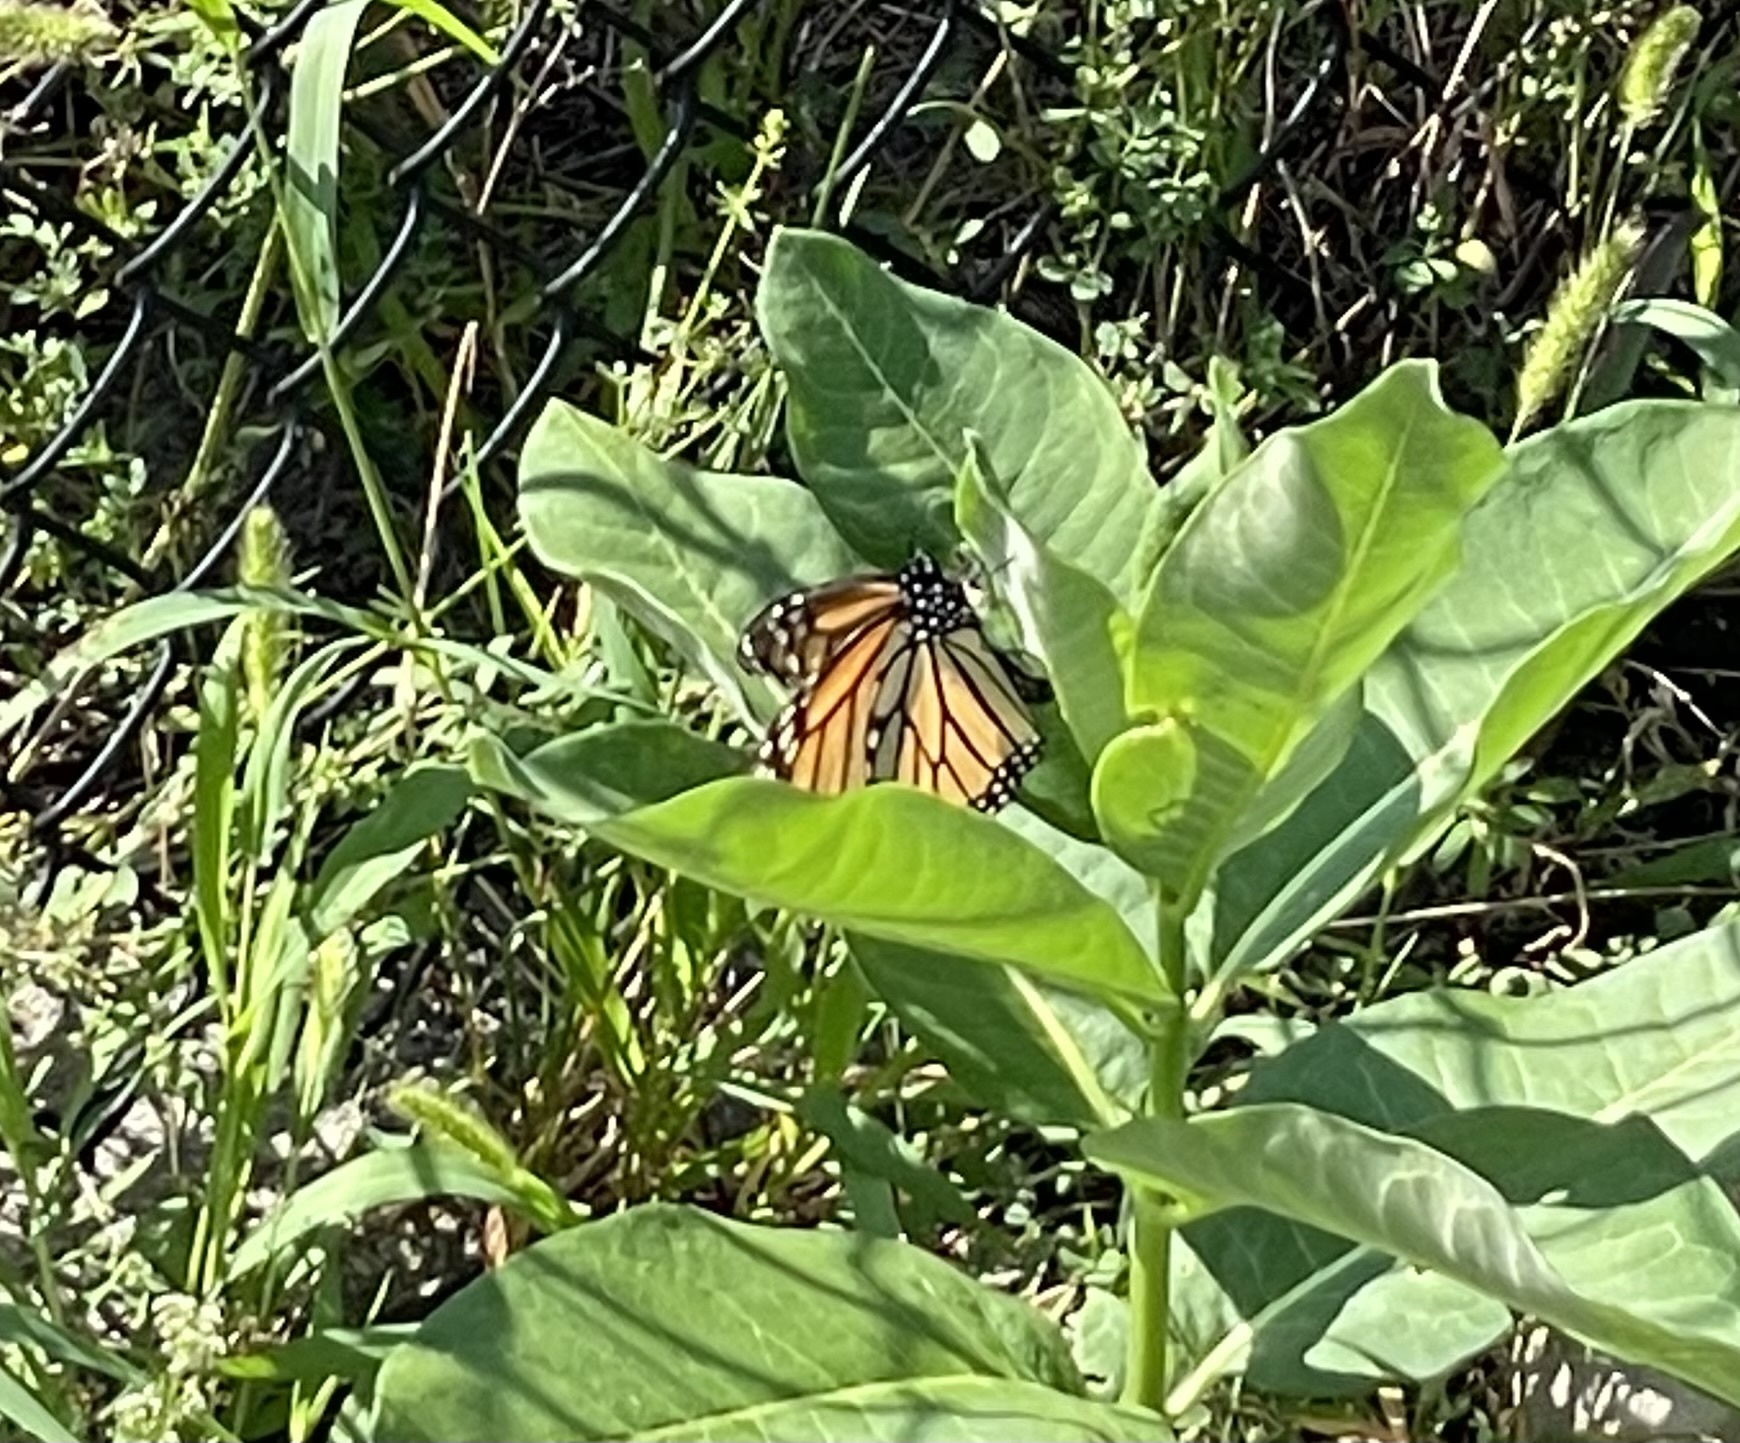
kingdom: Animalia
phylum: Arthropoda
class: Insecta
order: Lepidoptera
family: Nymphalidae
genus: Danaus
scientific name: Danaus plexippus
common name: Monarch
